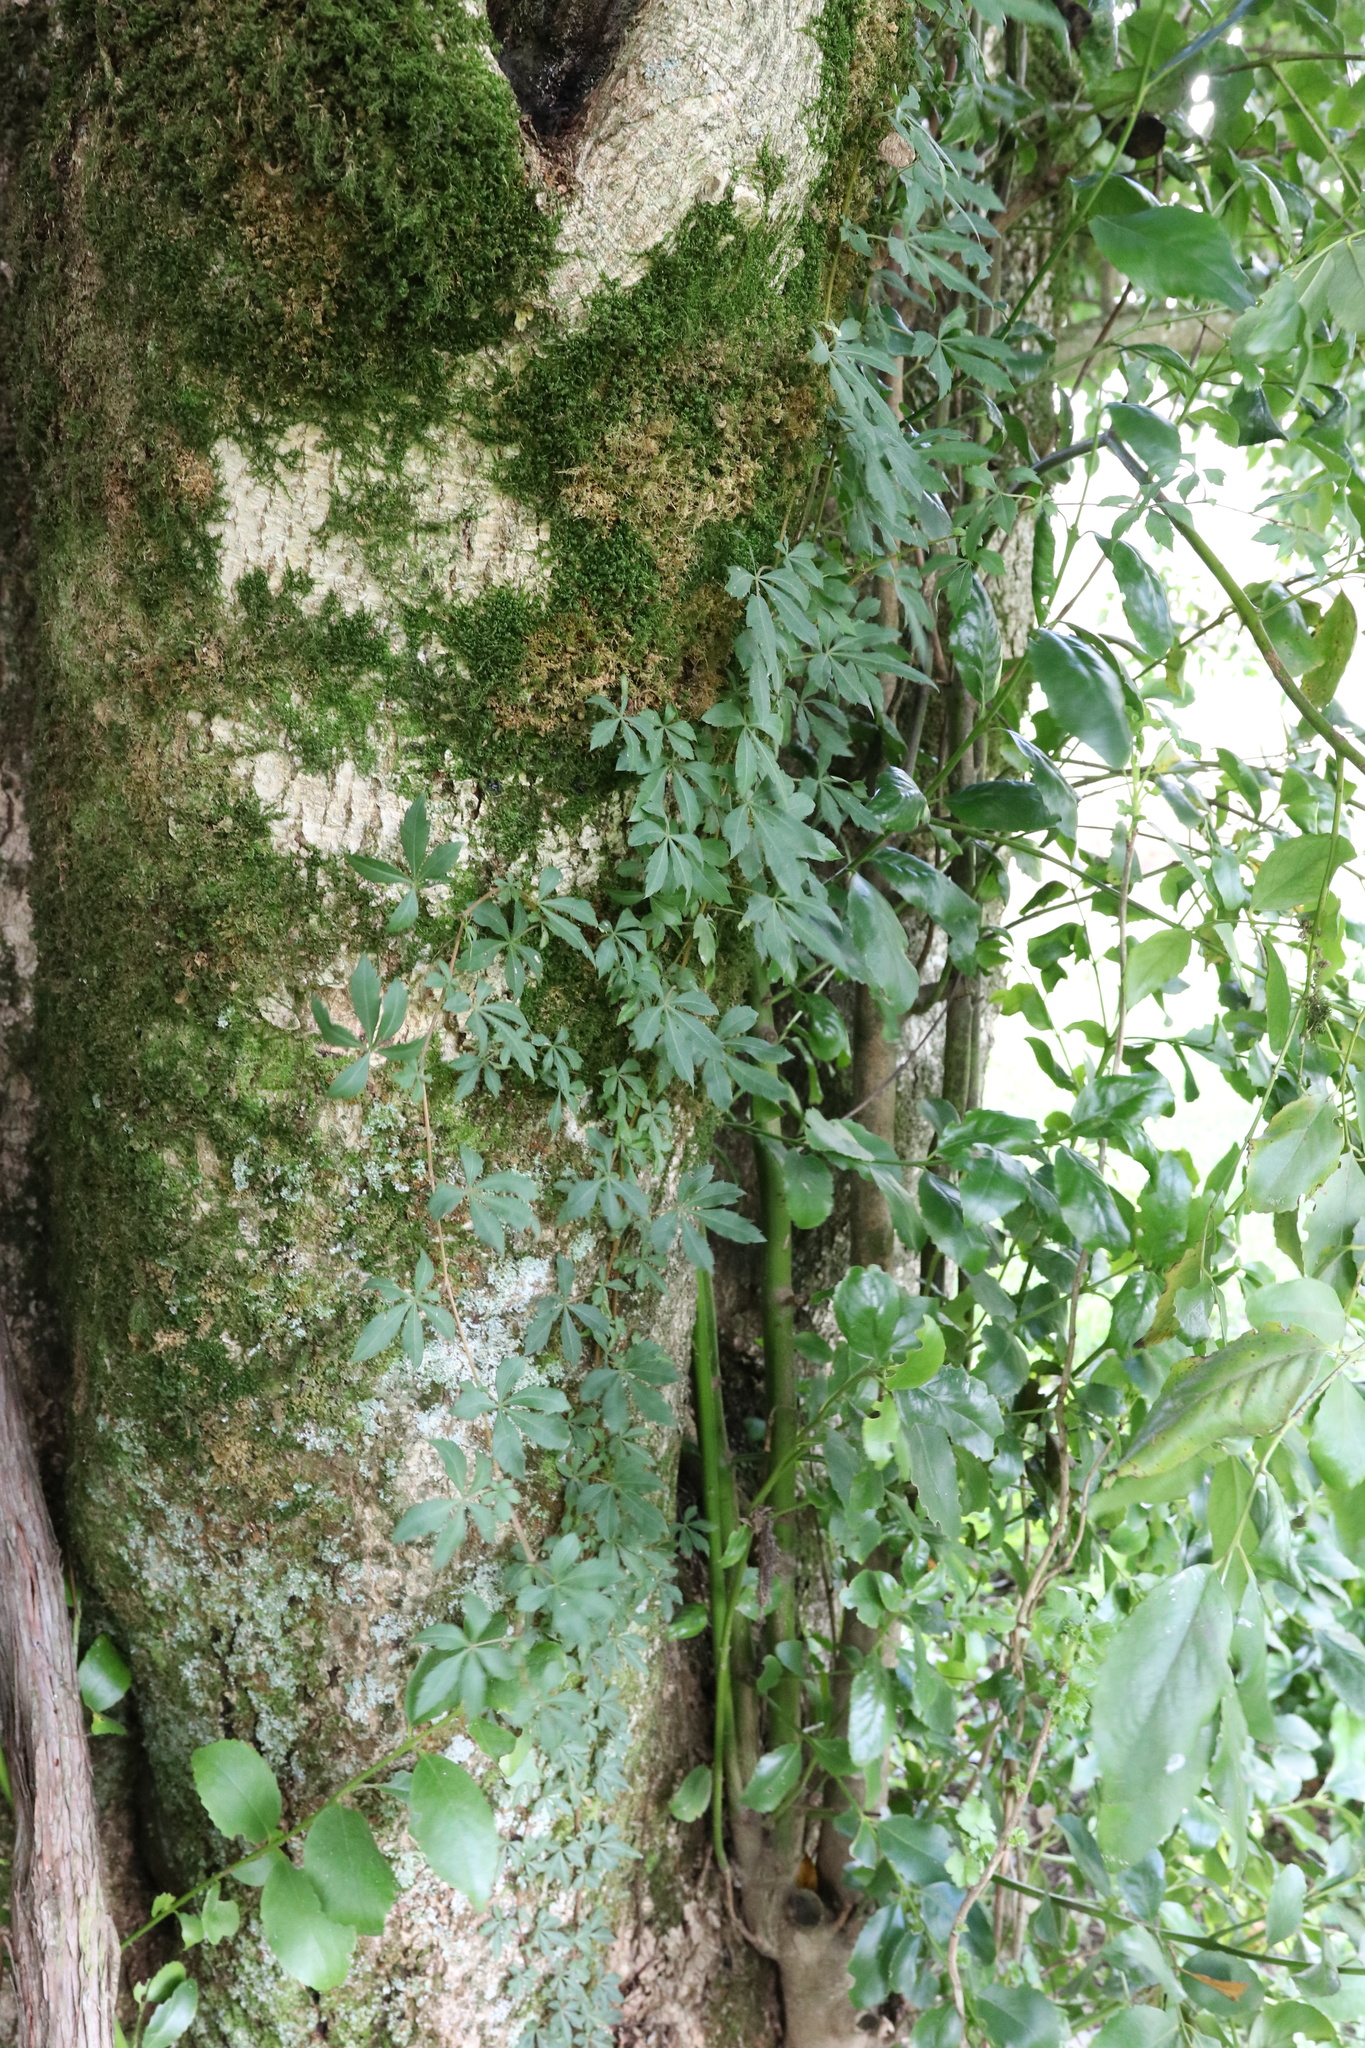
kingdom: Plantae
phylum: Tracheophyta
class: Magnoliopsida
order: Vitales
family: Vitaceae
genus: Clematicissus
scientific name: Clematicissus striata
